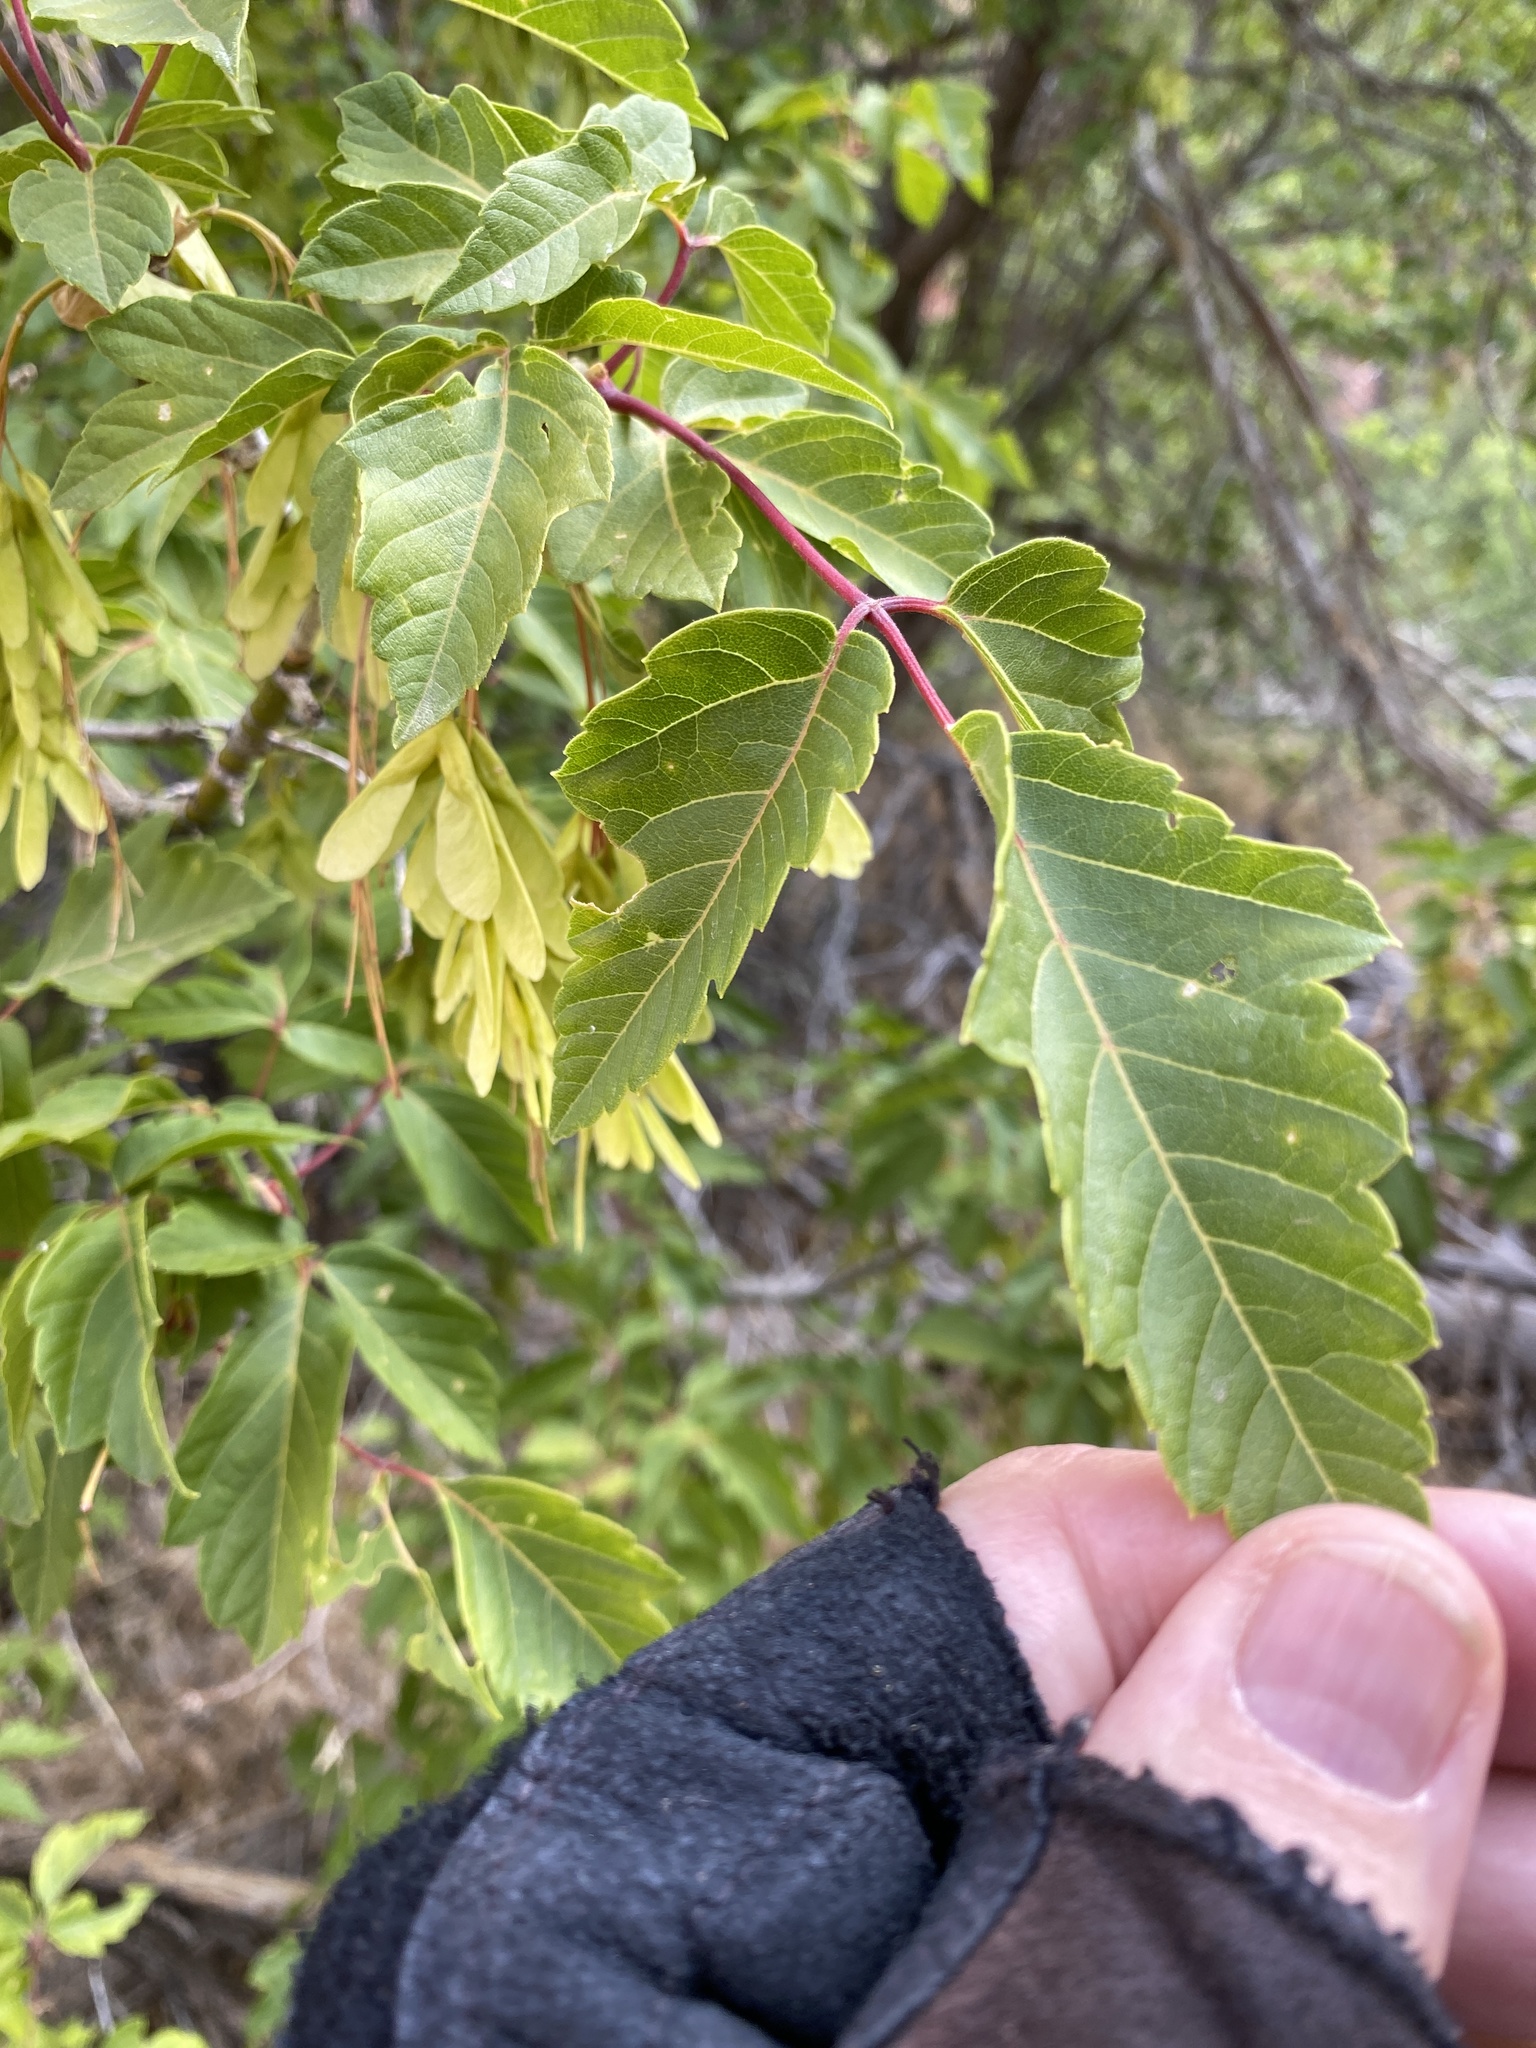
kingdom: Plantae
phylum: Tracheophyta
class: Magnoliopsida
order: Sapindales
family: Sapindaceae
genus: Acer
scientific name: Acer negundo
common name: Ashleaf maple
